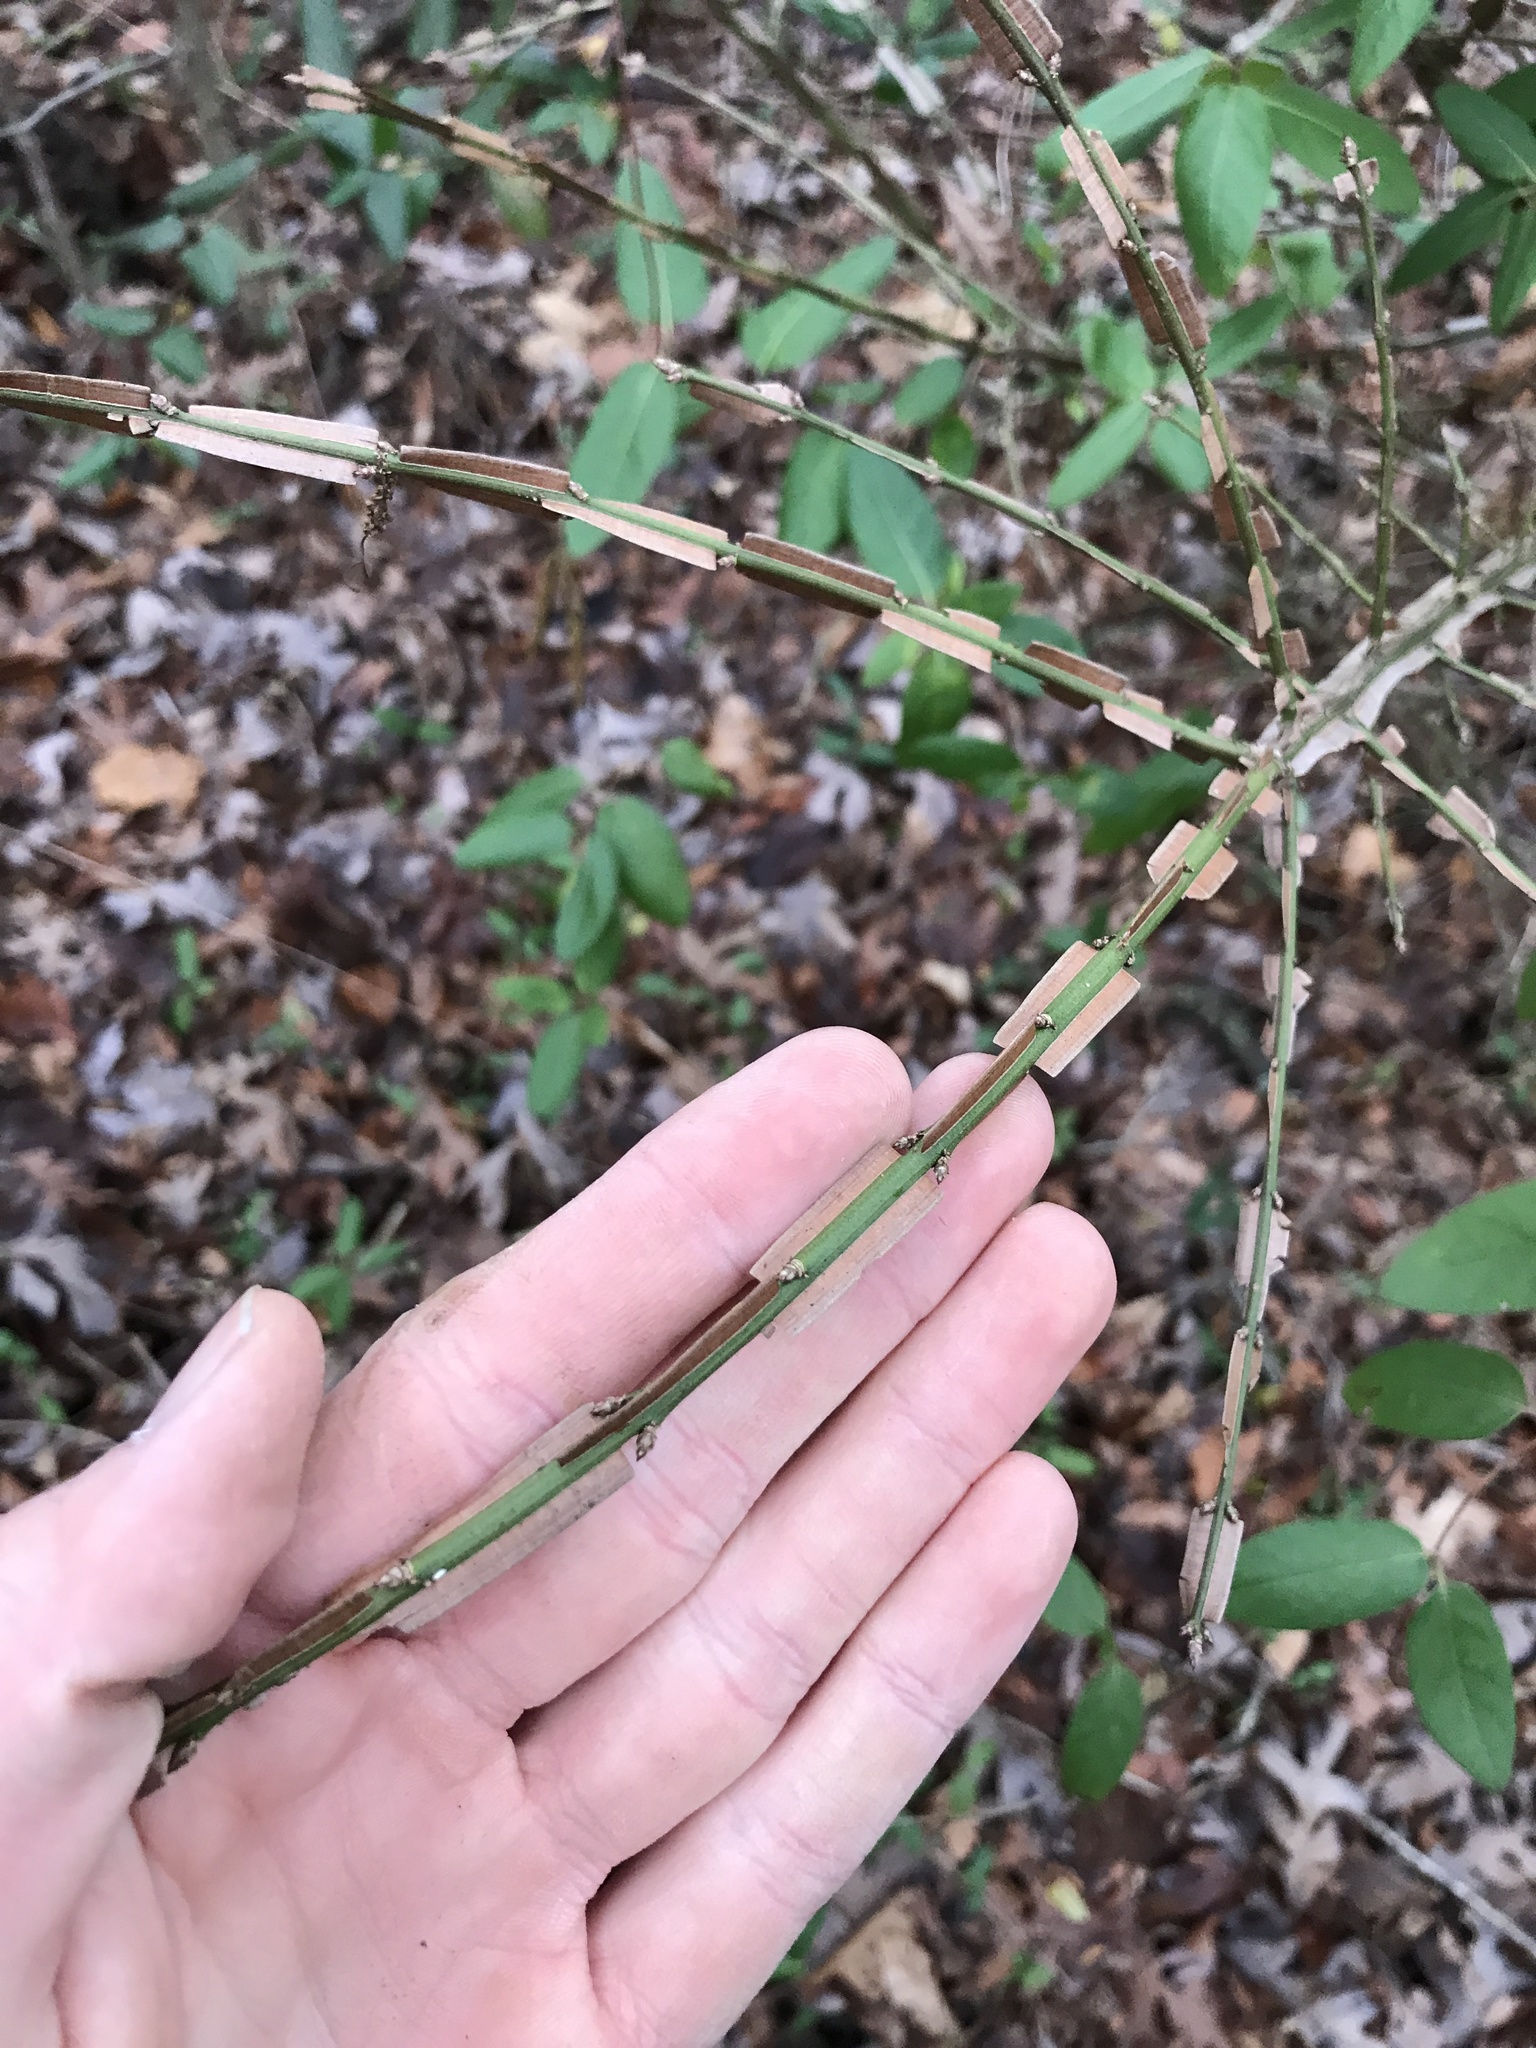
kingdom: Plantae
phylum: Tracheophyta
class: Magnoliopsida
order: Celastrales
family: Celastraceae
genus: Euonymus
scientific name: Euonymus alatus
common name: Winged euonymus
